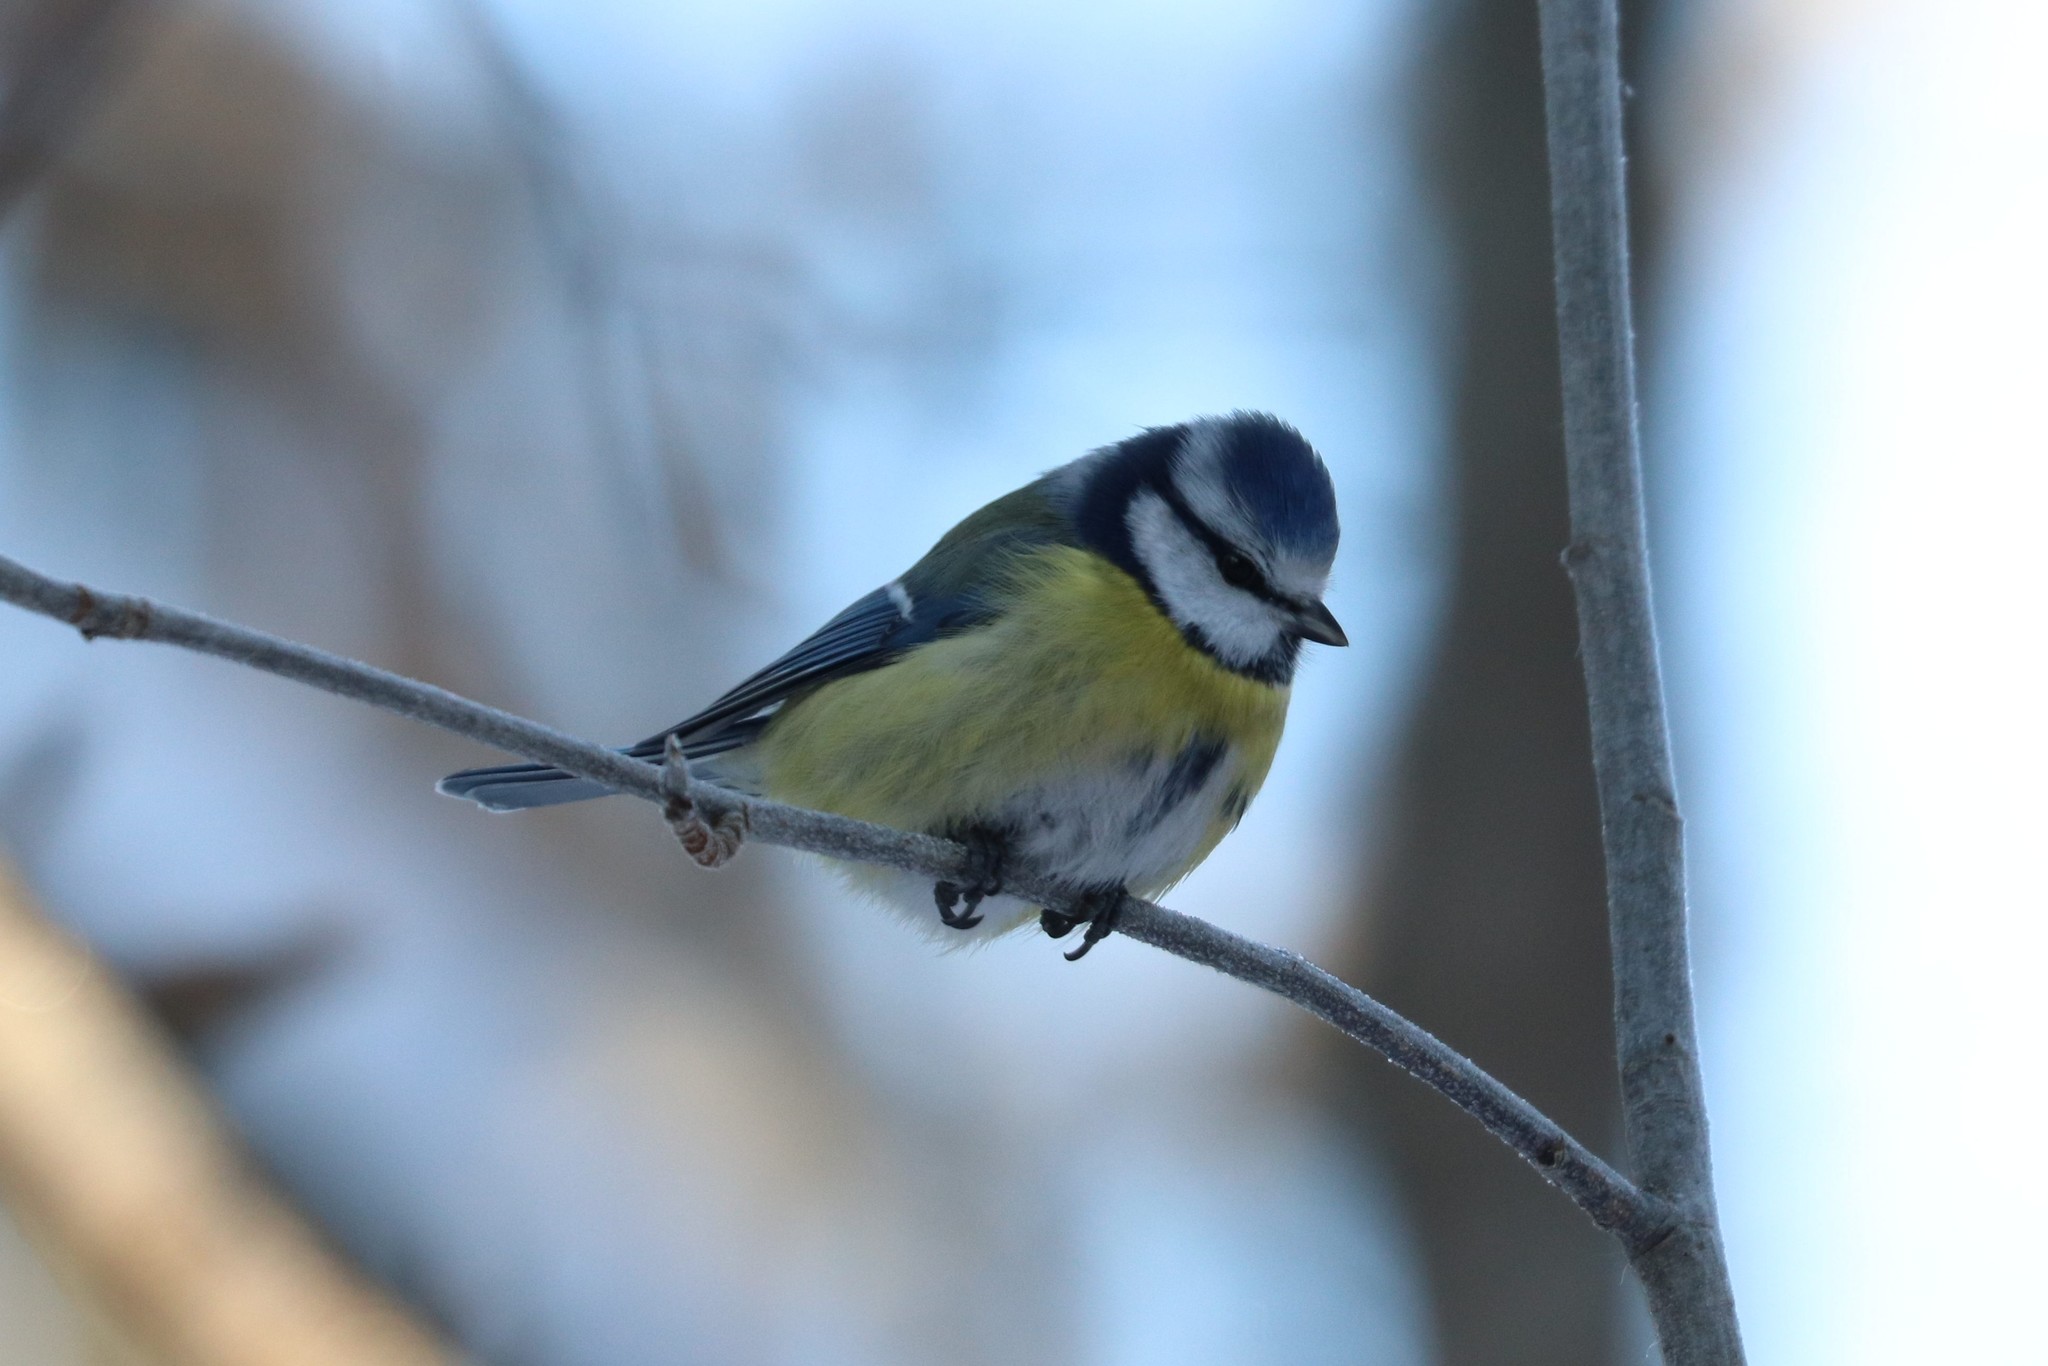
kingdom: Animalia
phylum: Chordata
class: Aves
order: Passeriformes
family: Paridae
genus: Cyanistes
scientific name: Cyanistes caeruleus
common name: Eurasian blue tit
